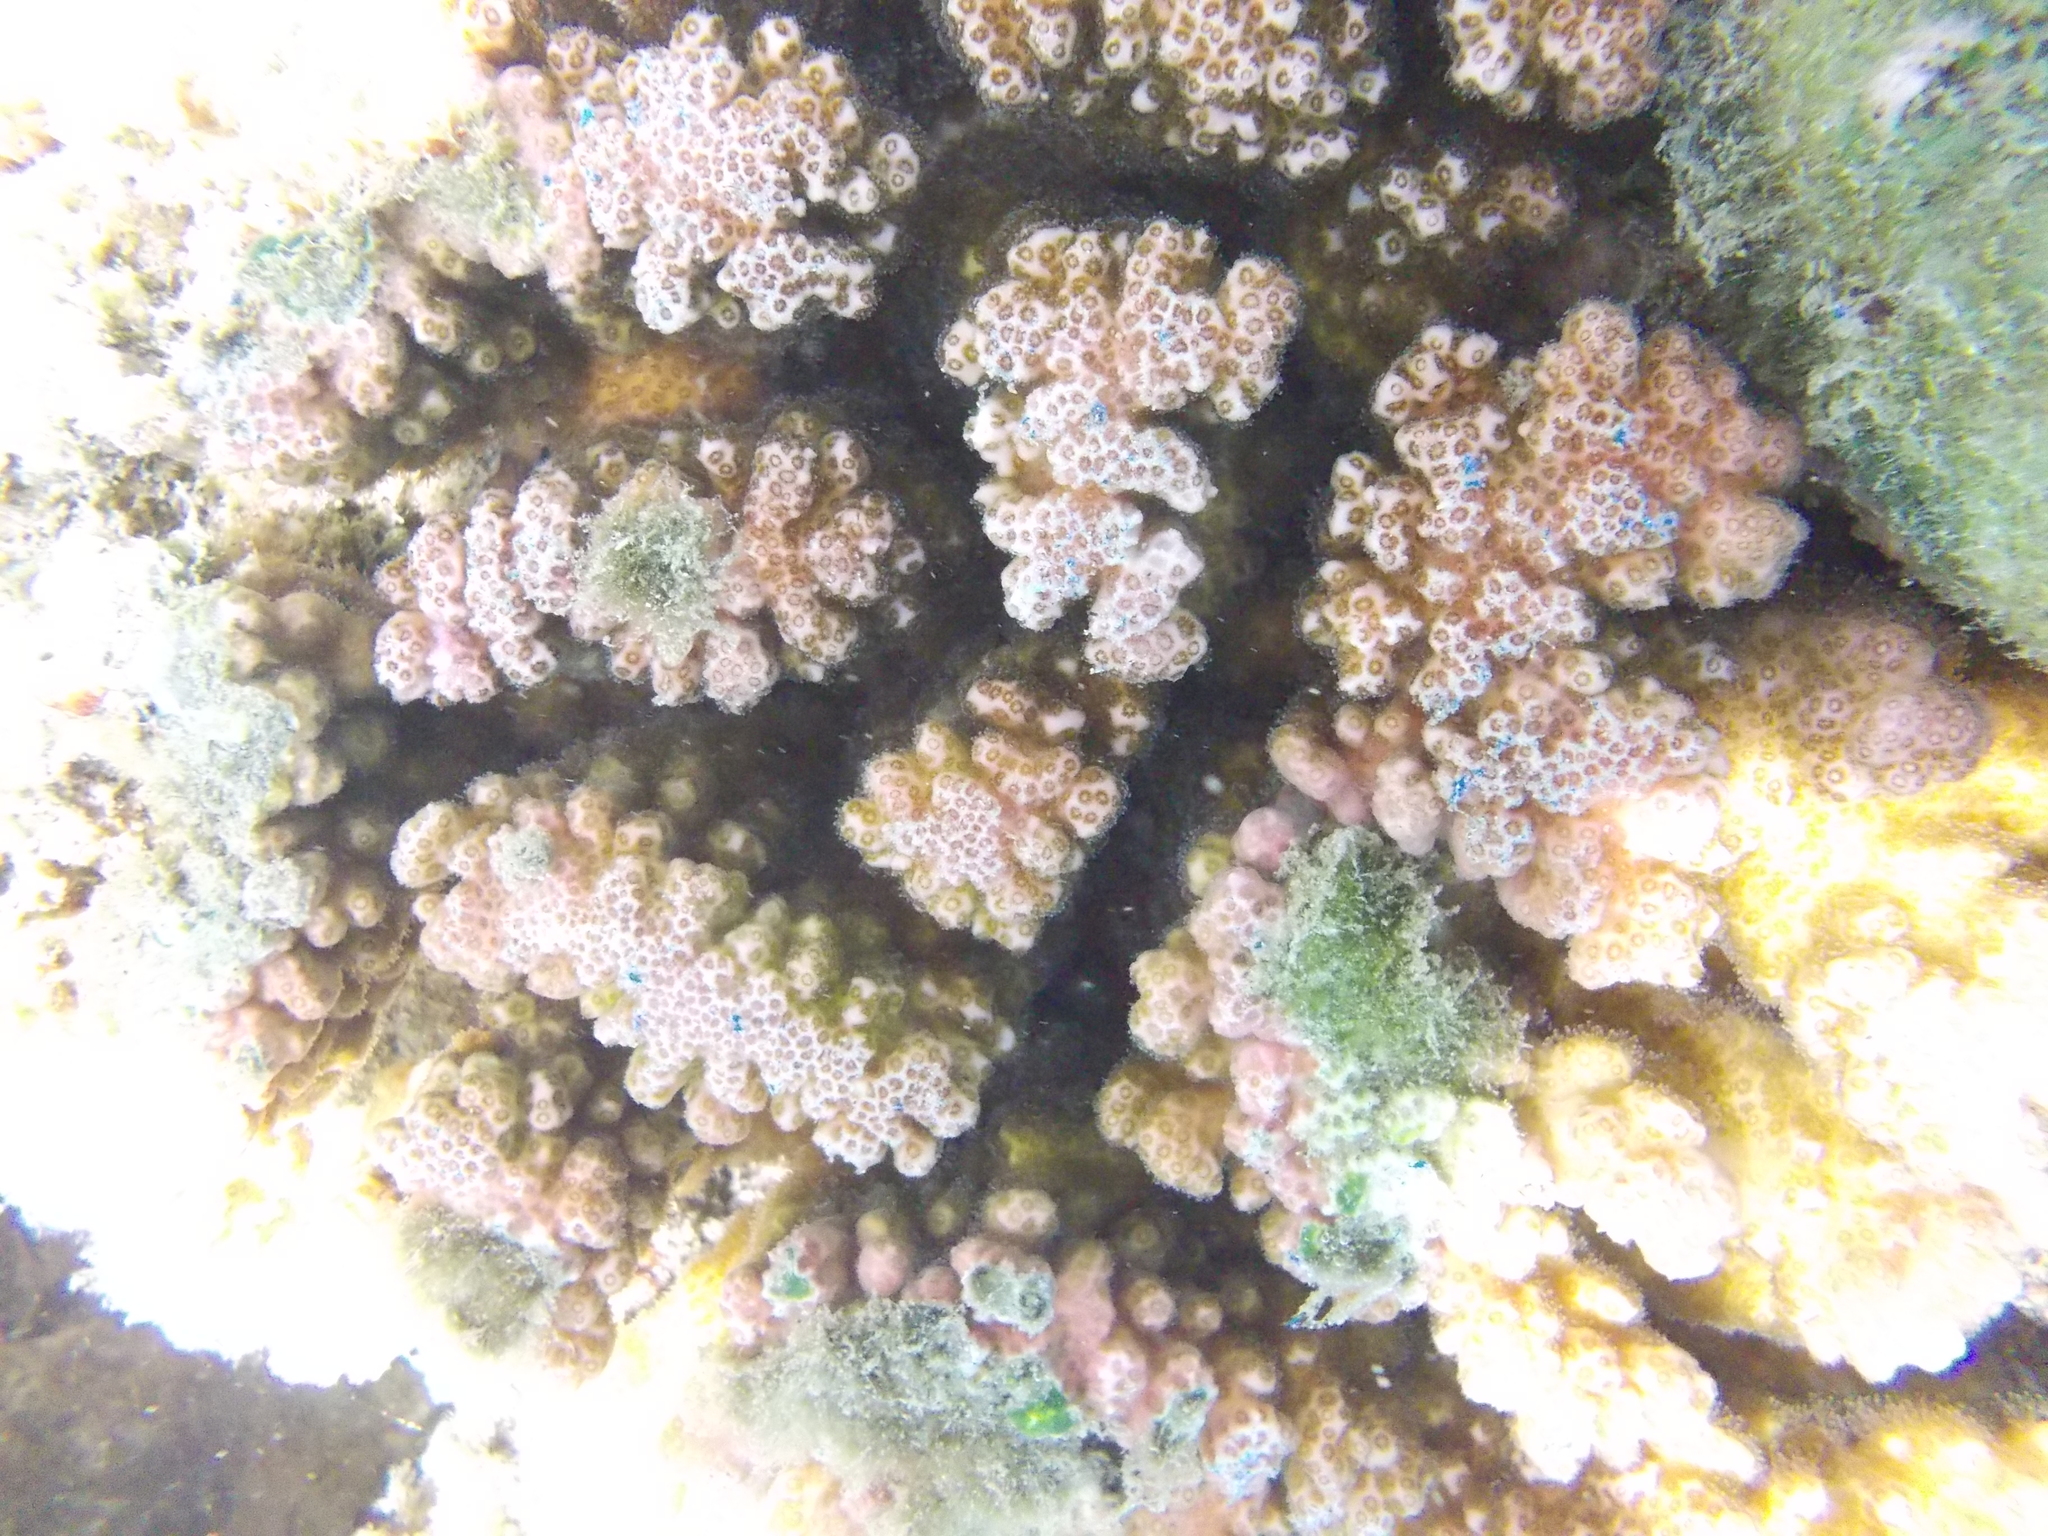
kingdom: Animalia
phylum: Cnidaria
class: Anthozoa
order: Scleractinia
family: Pocilloporidae
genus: Pocillopora
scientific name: Pocillopora verrucosa
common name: Cauliflower coral
